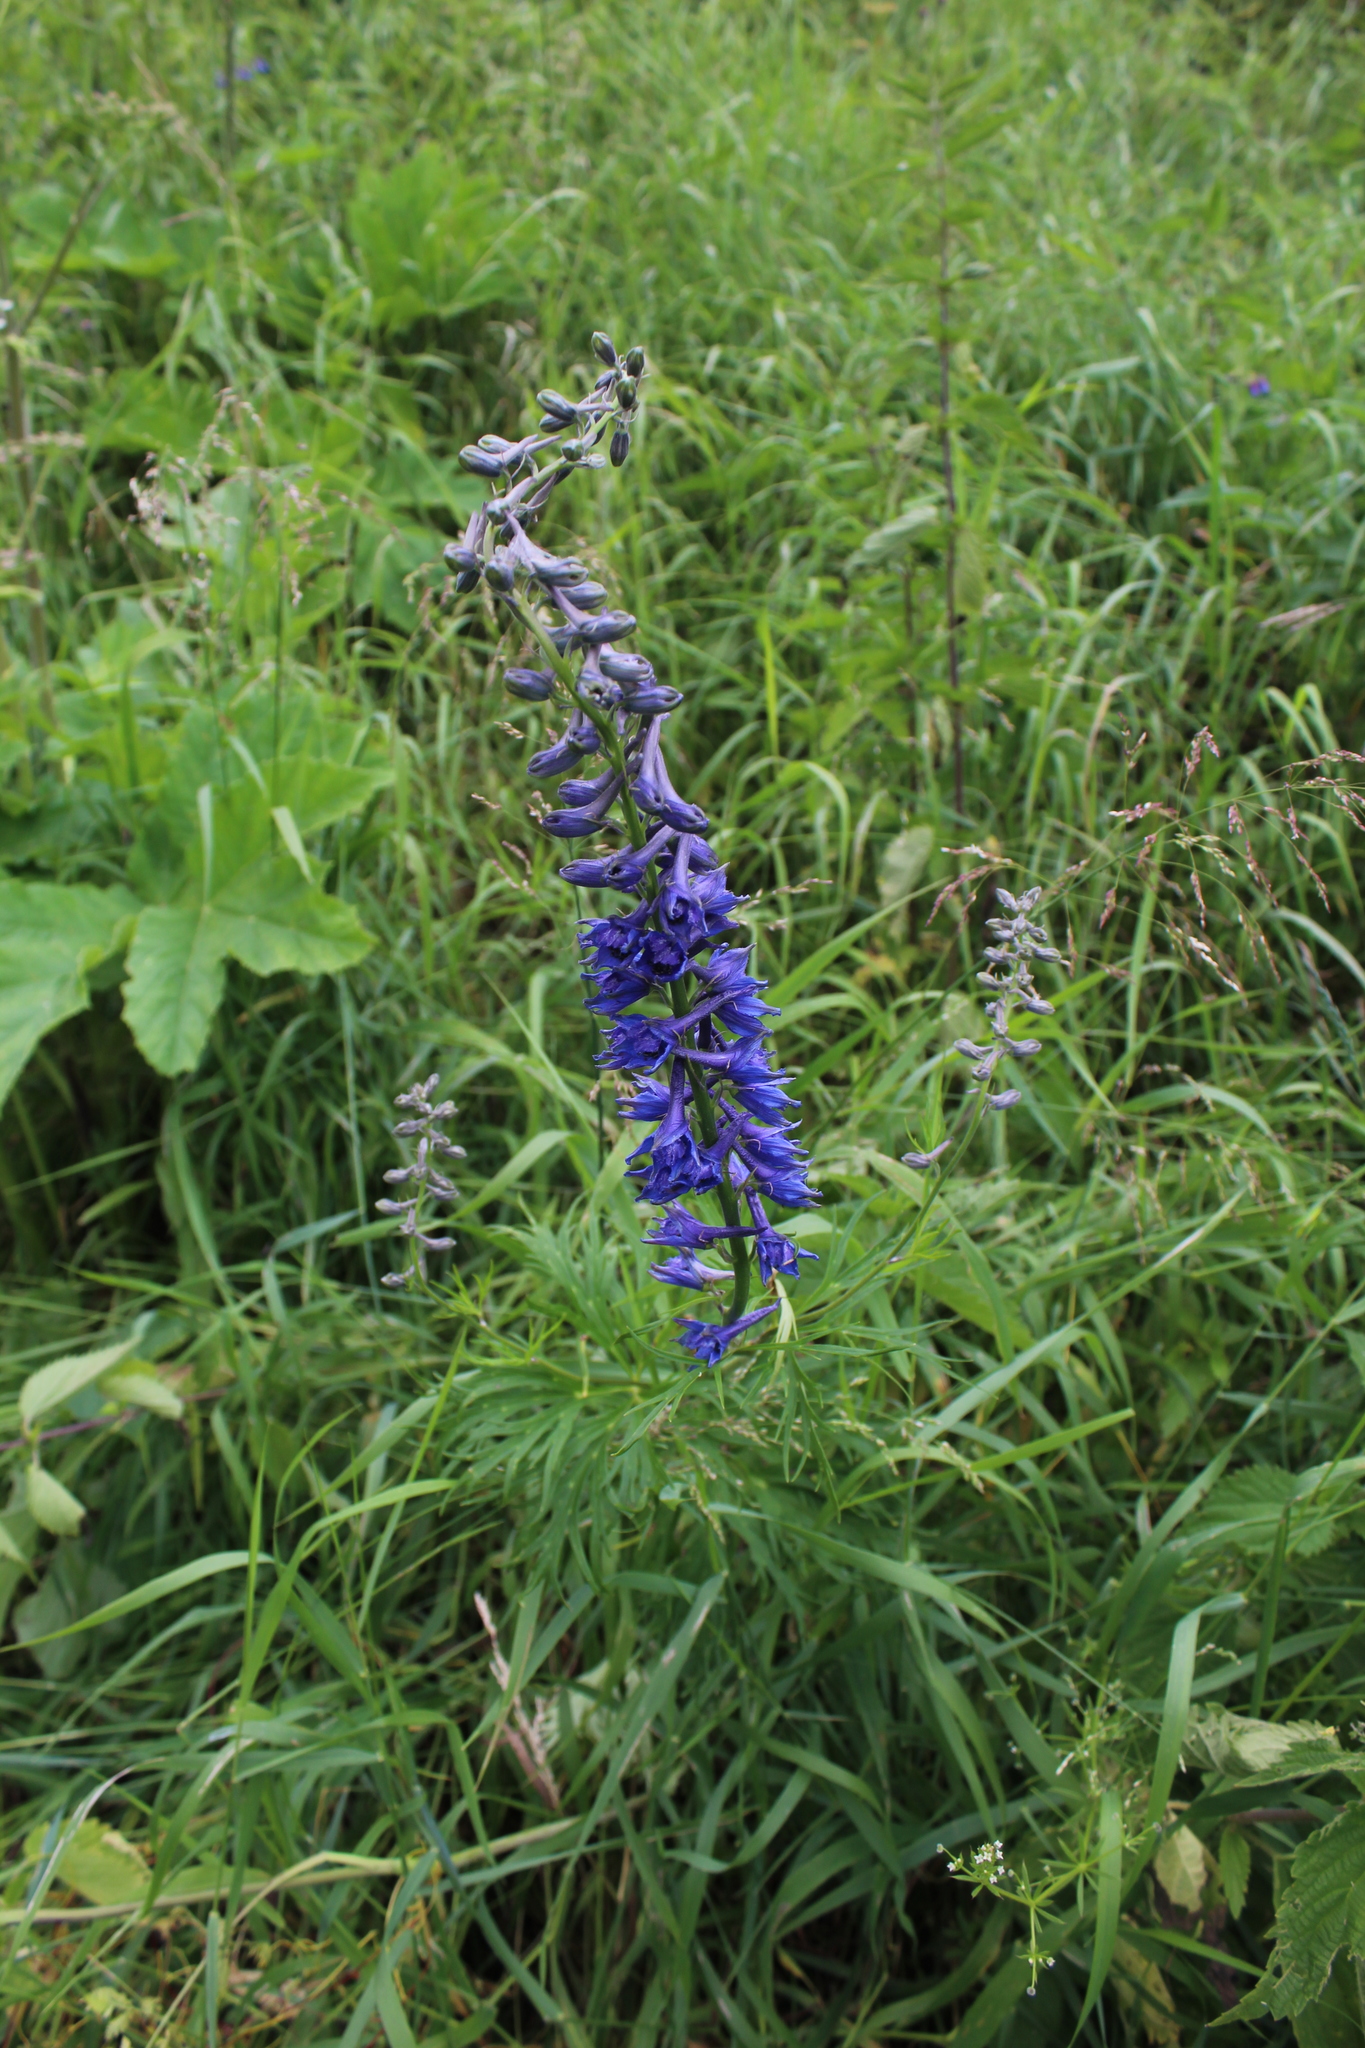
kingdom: Plantae
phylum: Tracheophyta
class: Magnoliopsida
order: Ranunculales
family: Ranunculaceae
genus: Delphinium
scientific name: Delphinium schmalhausenii
